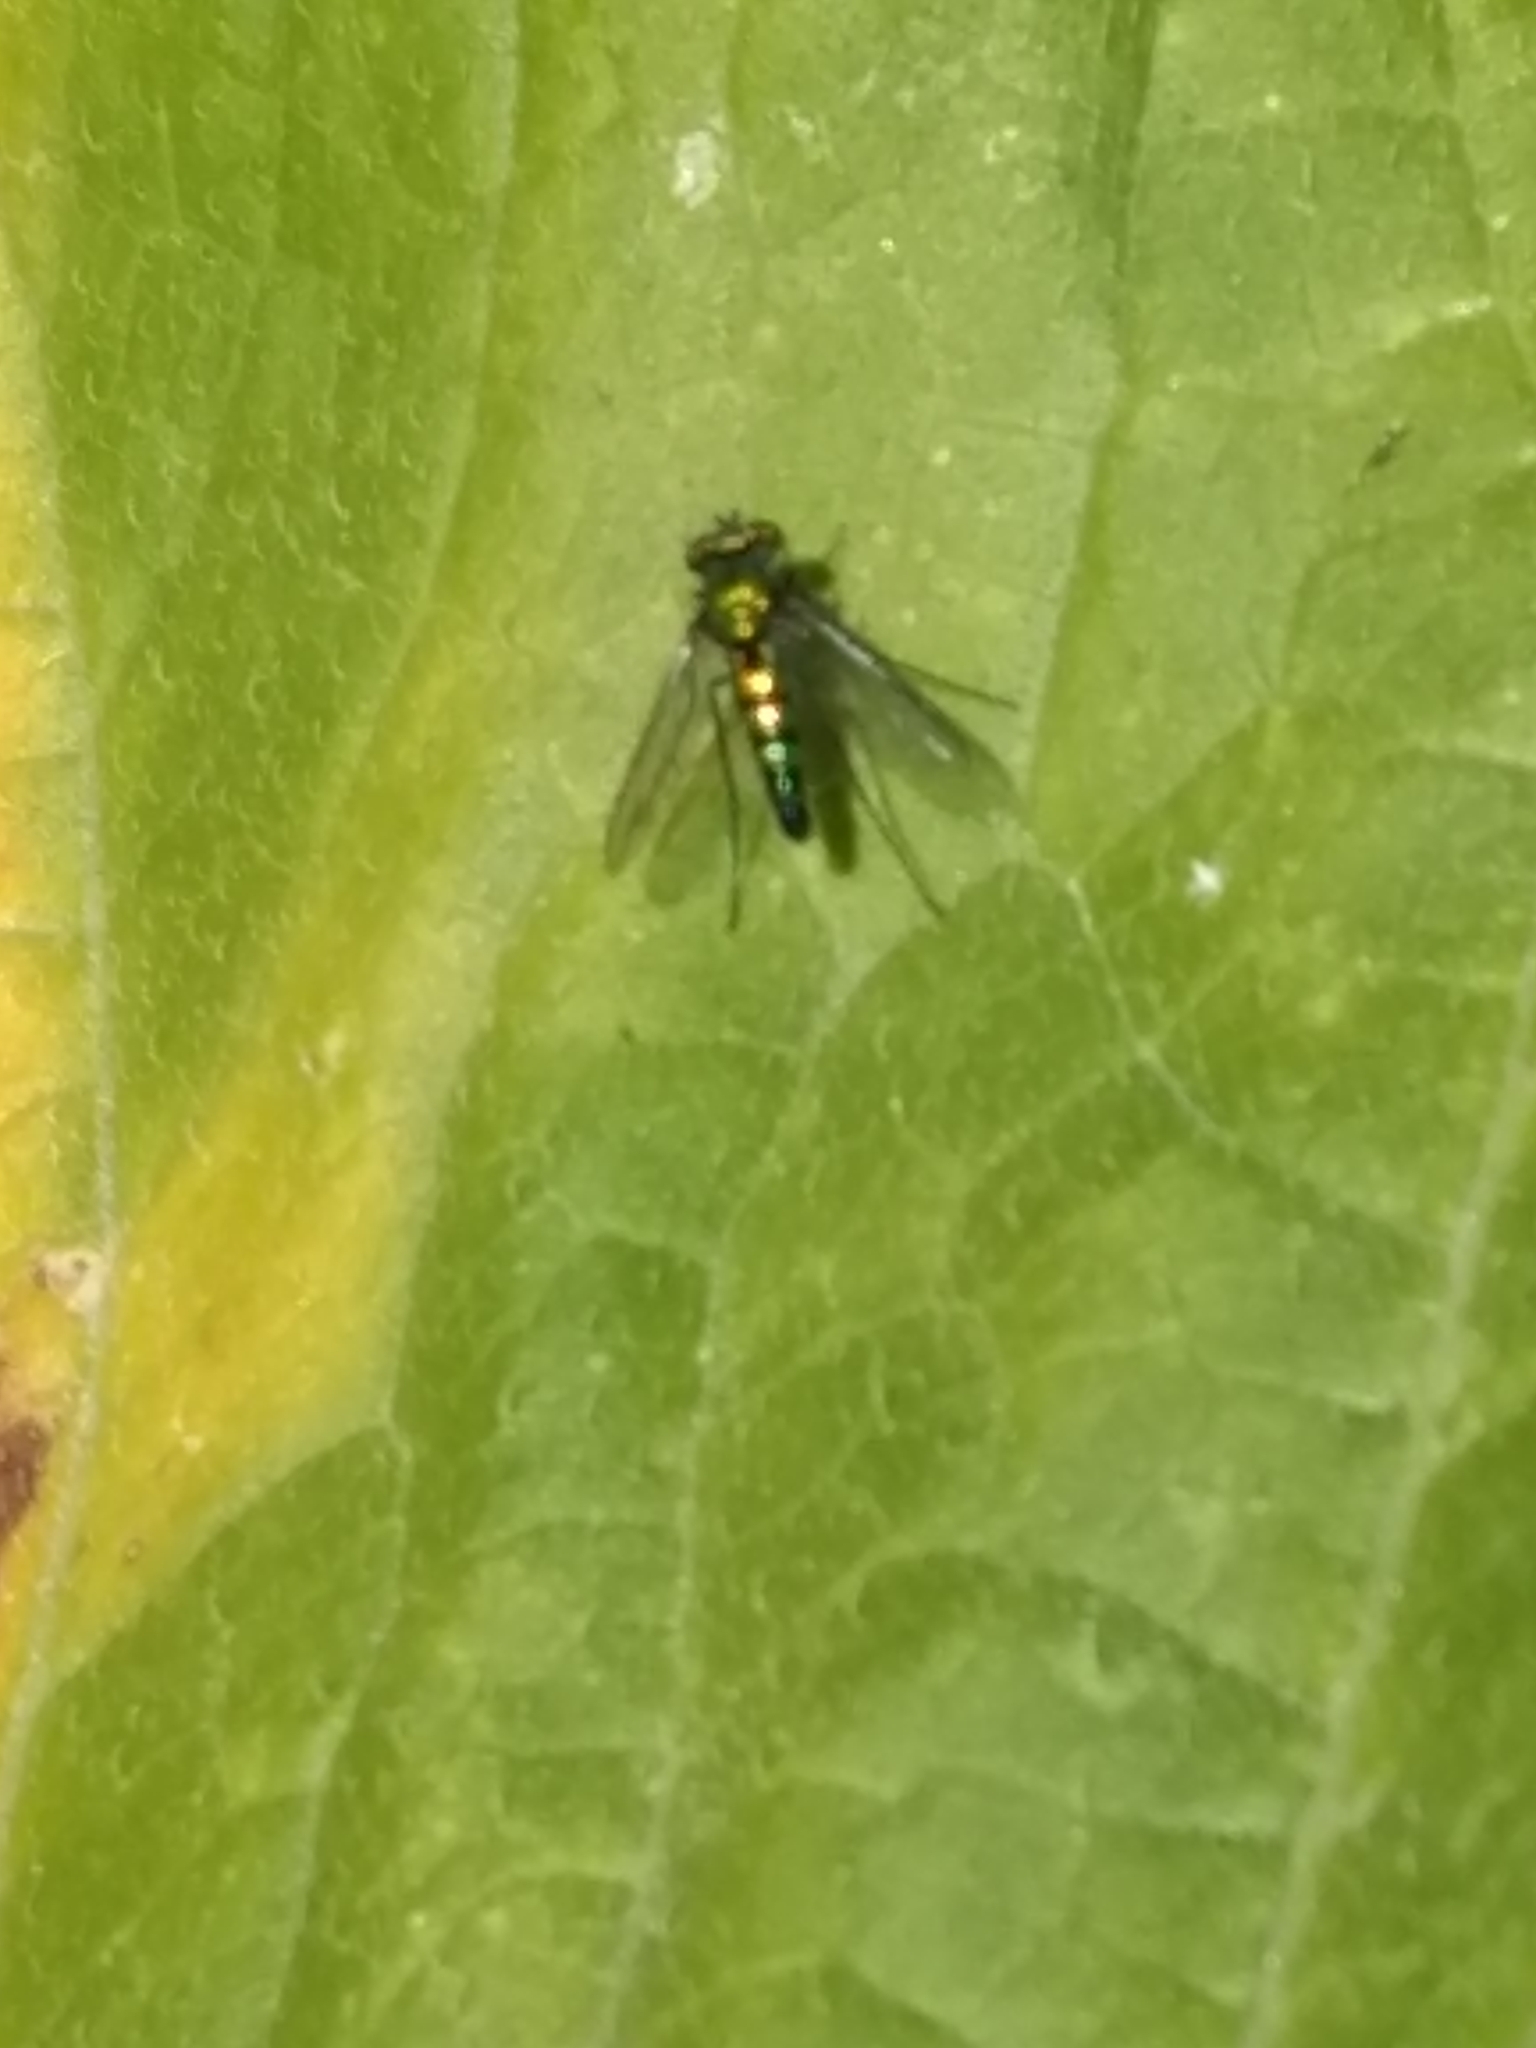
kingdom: Animalia
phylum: Arthropoda
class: Insecta
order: Diptera
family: Dolichopodidae
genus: Condylostylus
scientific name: Condylostylus longicornis
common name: Long-legged fly
